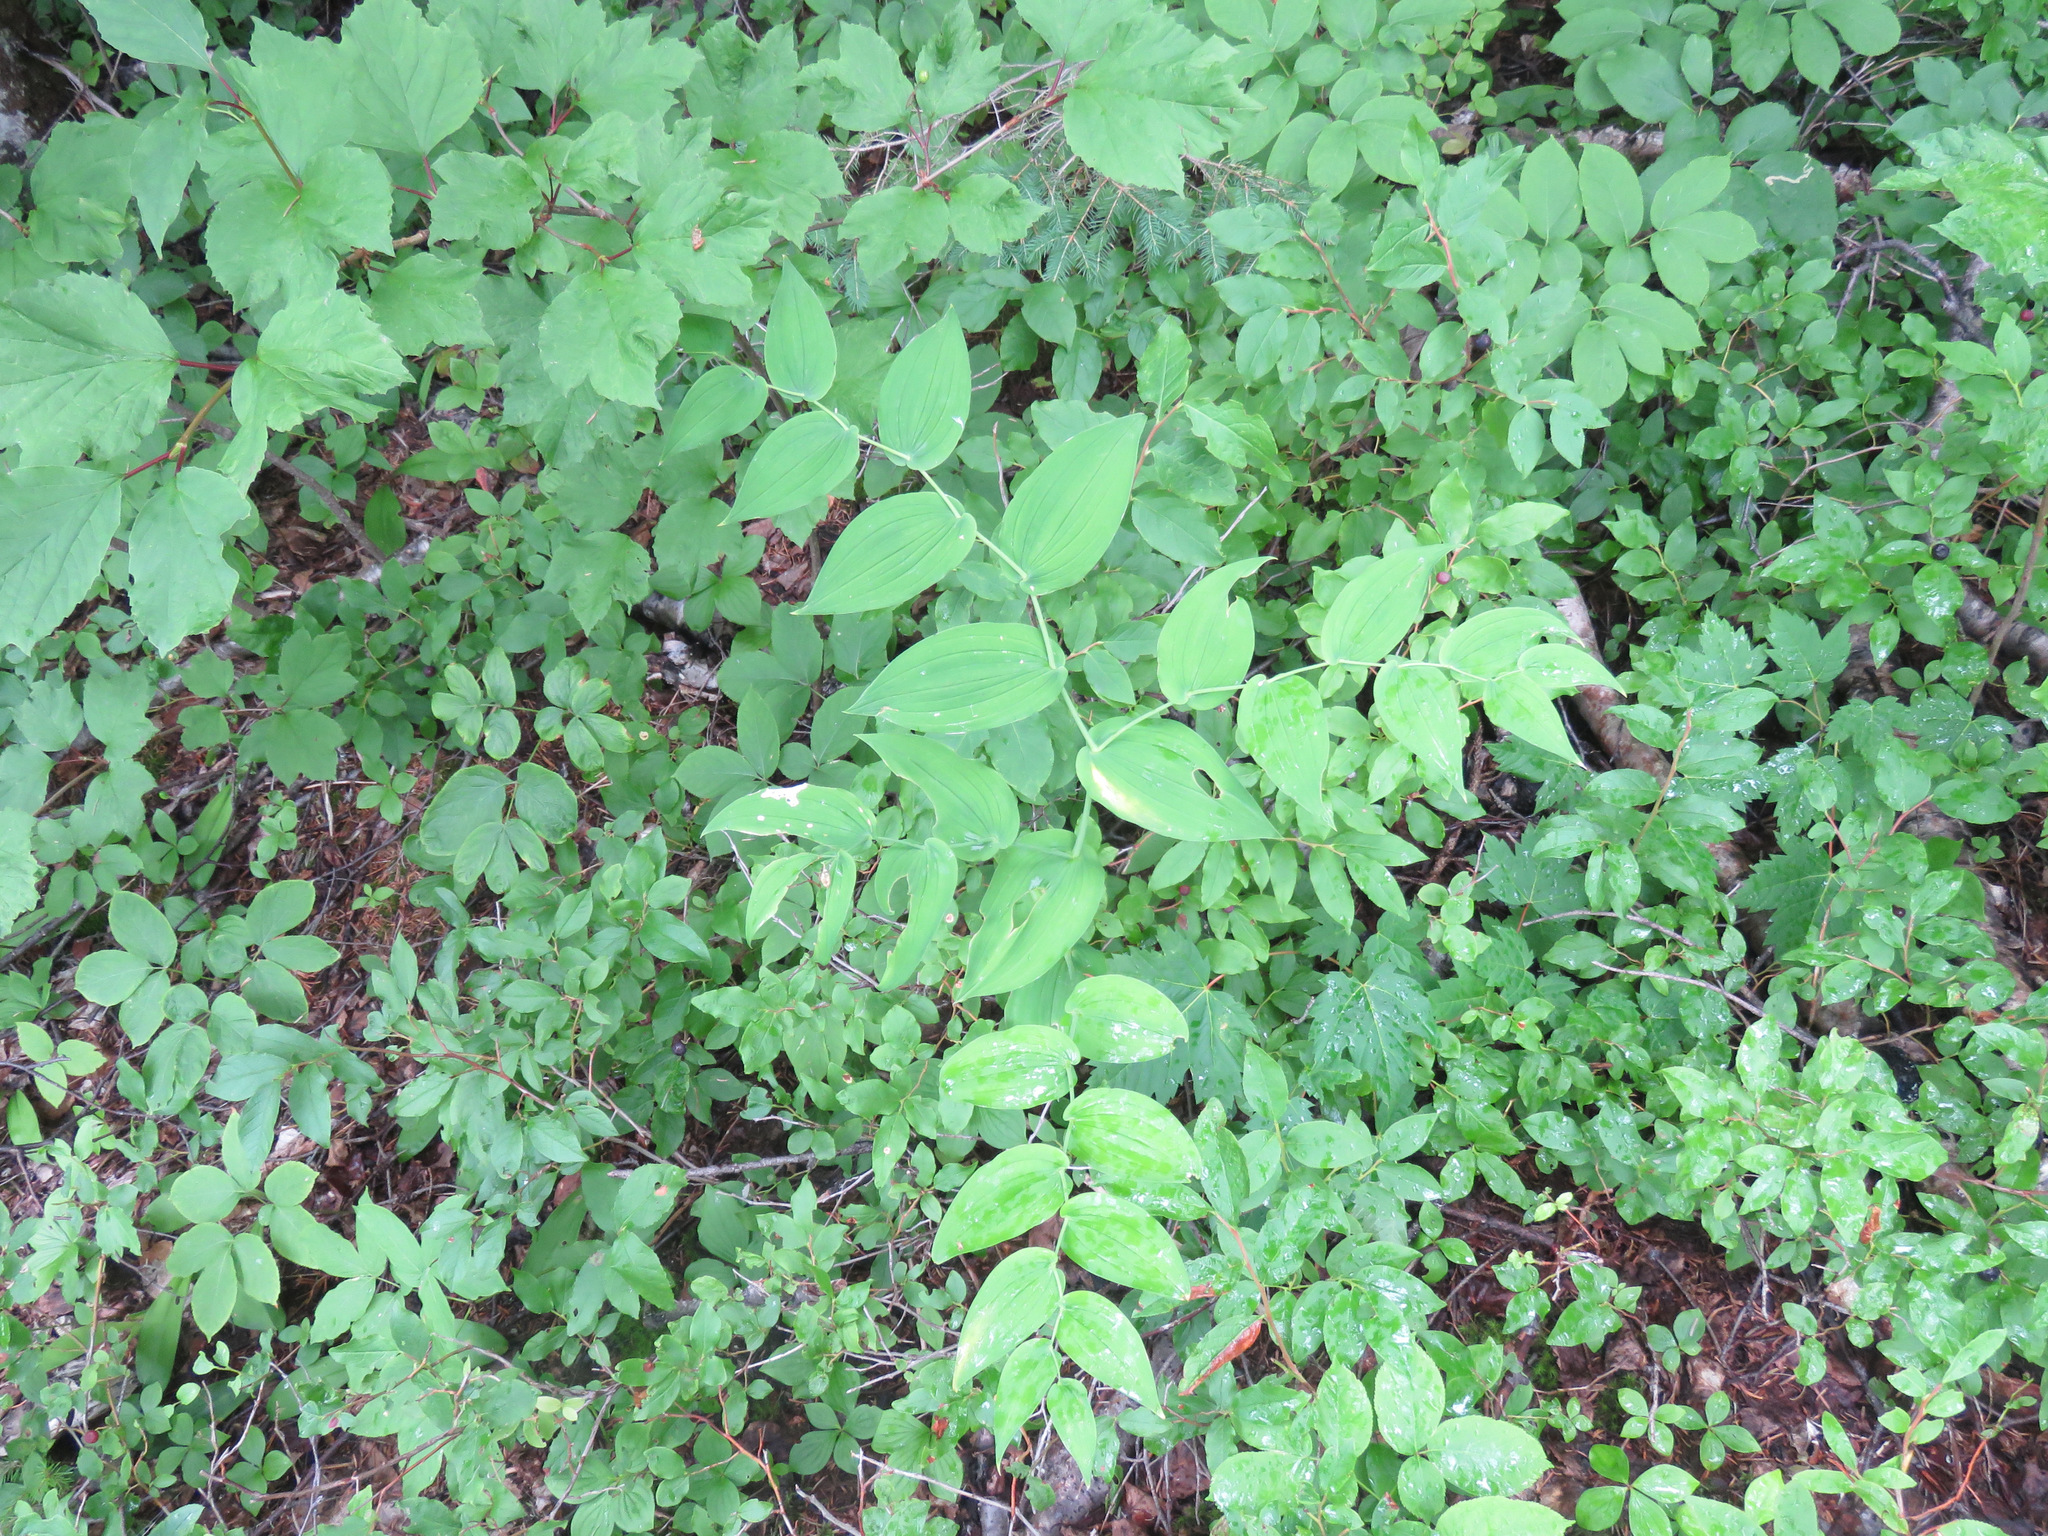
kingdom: Plantae
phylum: Tracheophyta
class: Liliopsida
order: Liliales
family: Liliaceae
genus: Streptopus
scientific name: Streptopus amplexifolius
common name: Clasp twisted stalk
